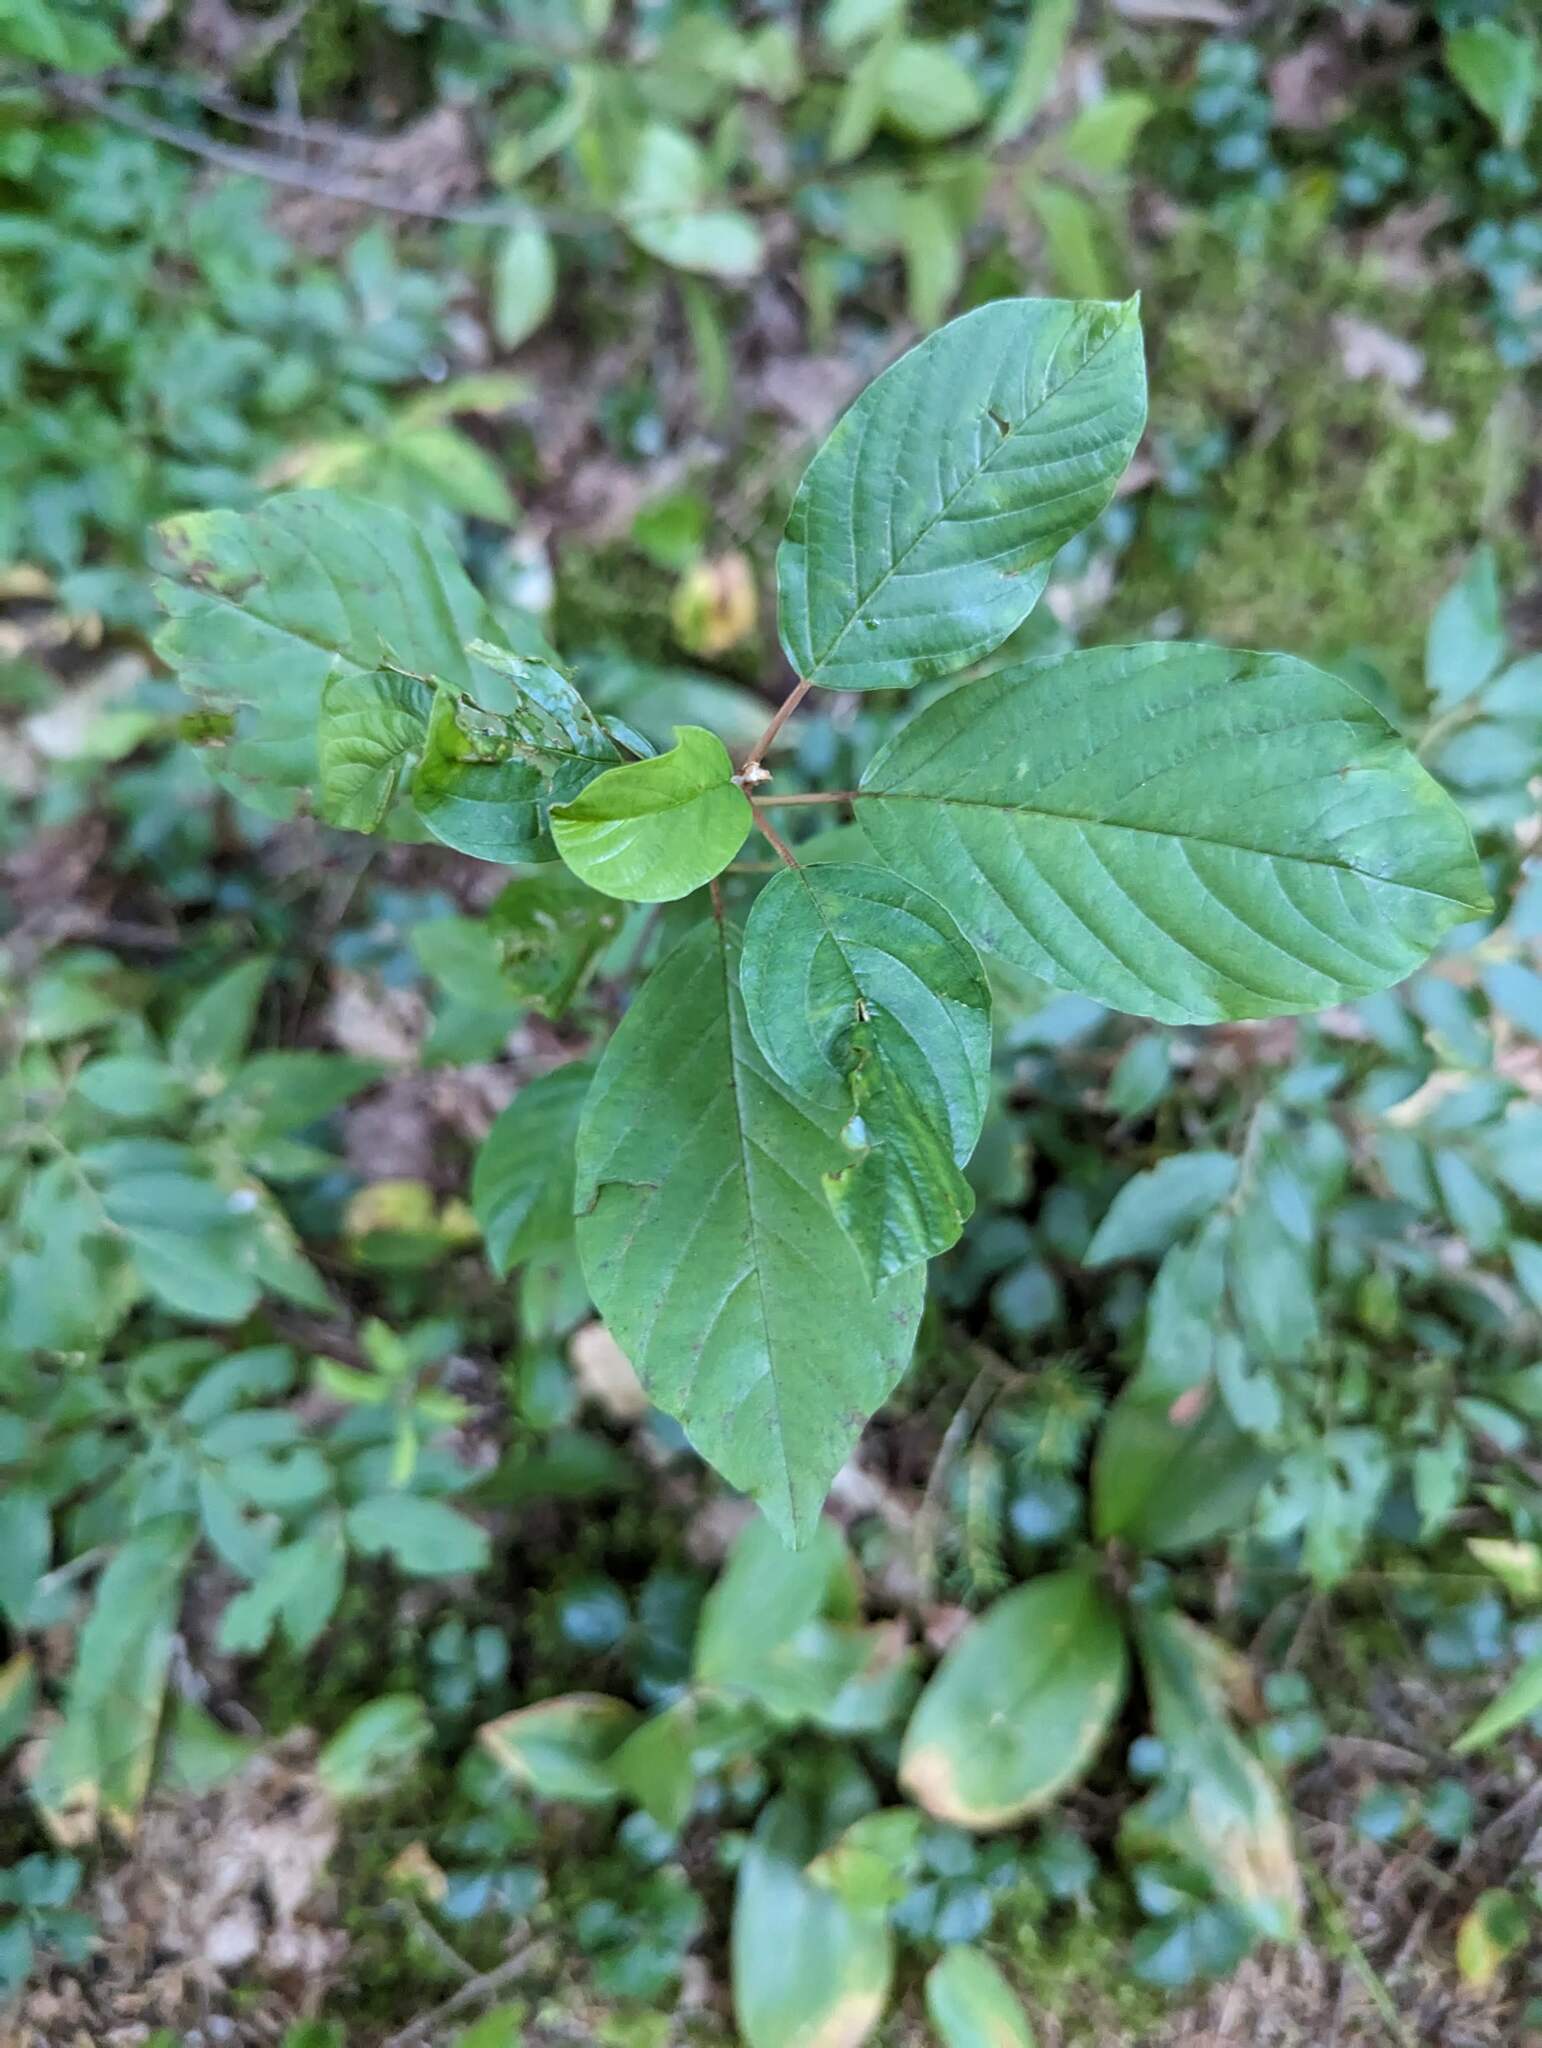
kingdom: Plantae
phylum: Tracheophyta
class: Magnoliopsida
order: Rosales
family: Rhamnaceae
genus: Frangula
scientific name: Frangula alnus
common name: Alder buckthorn
